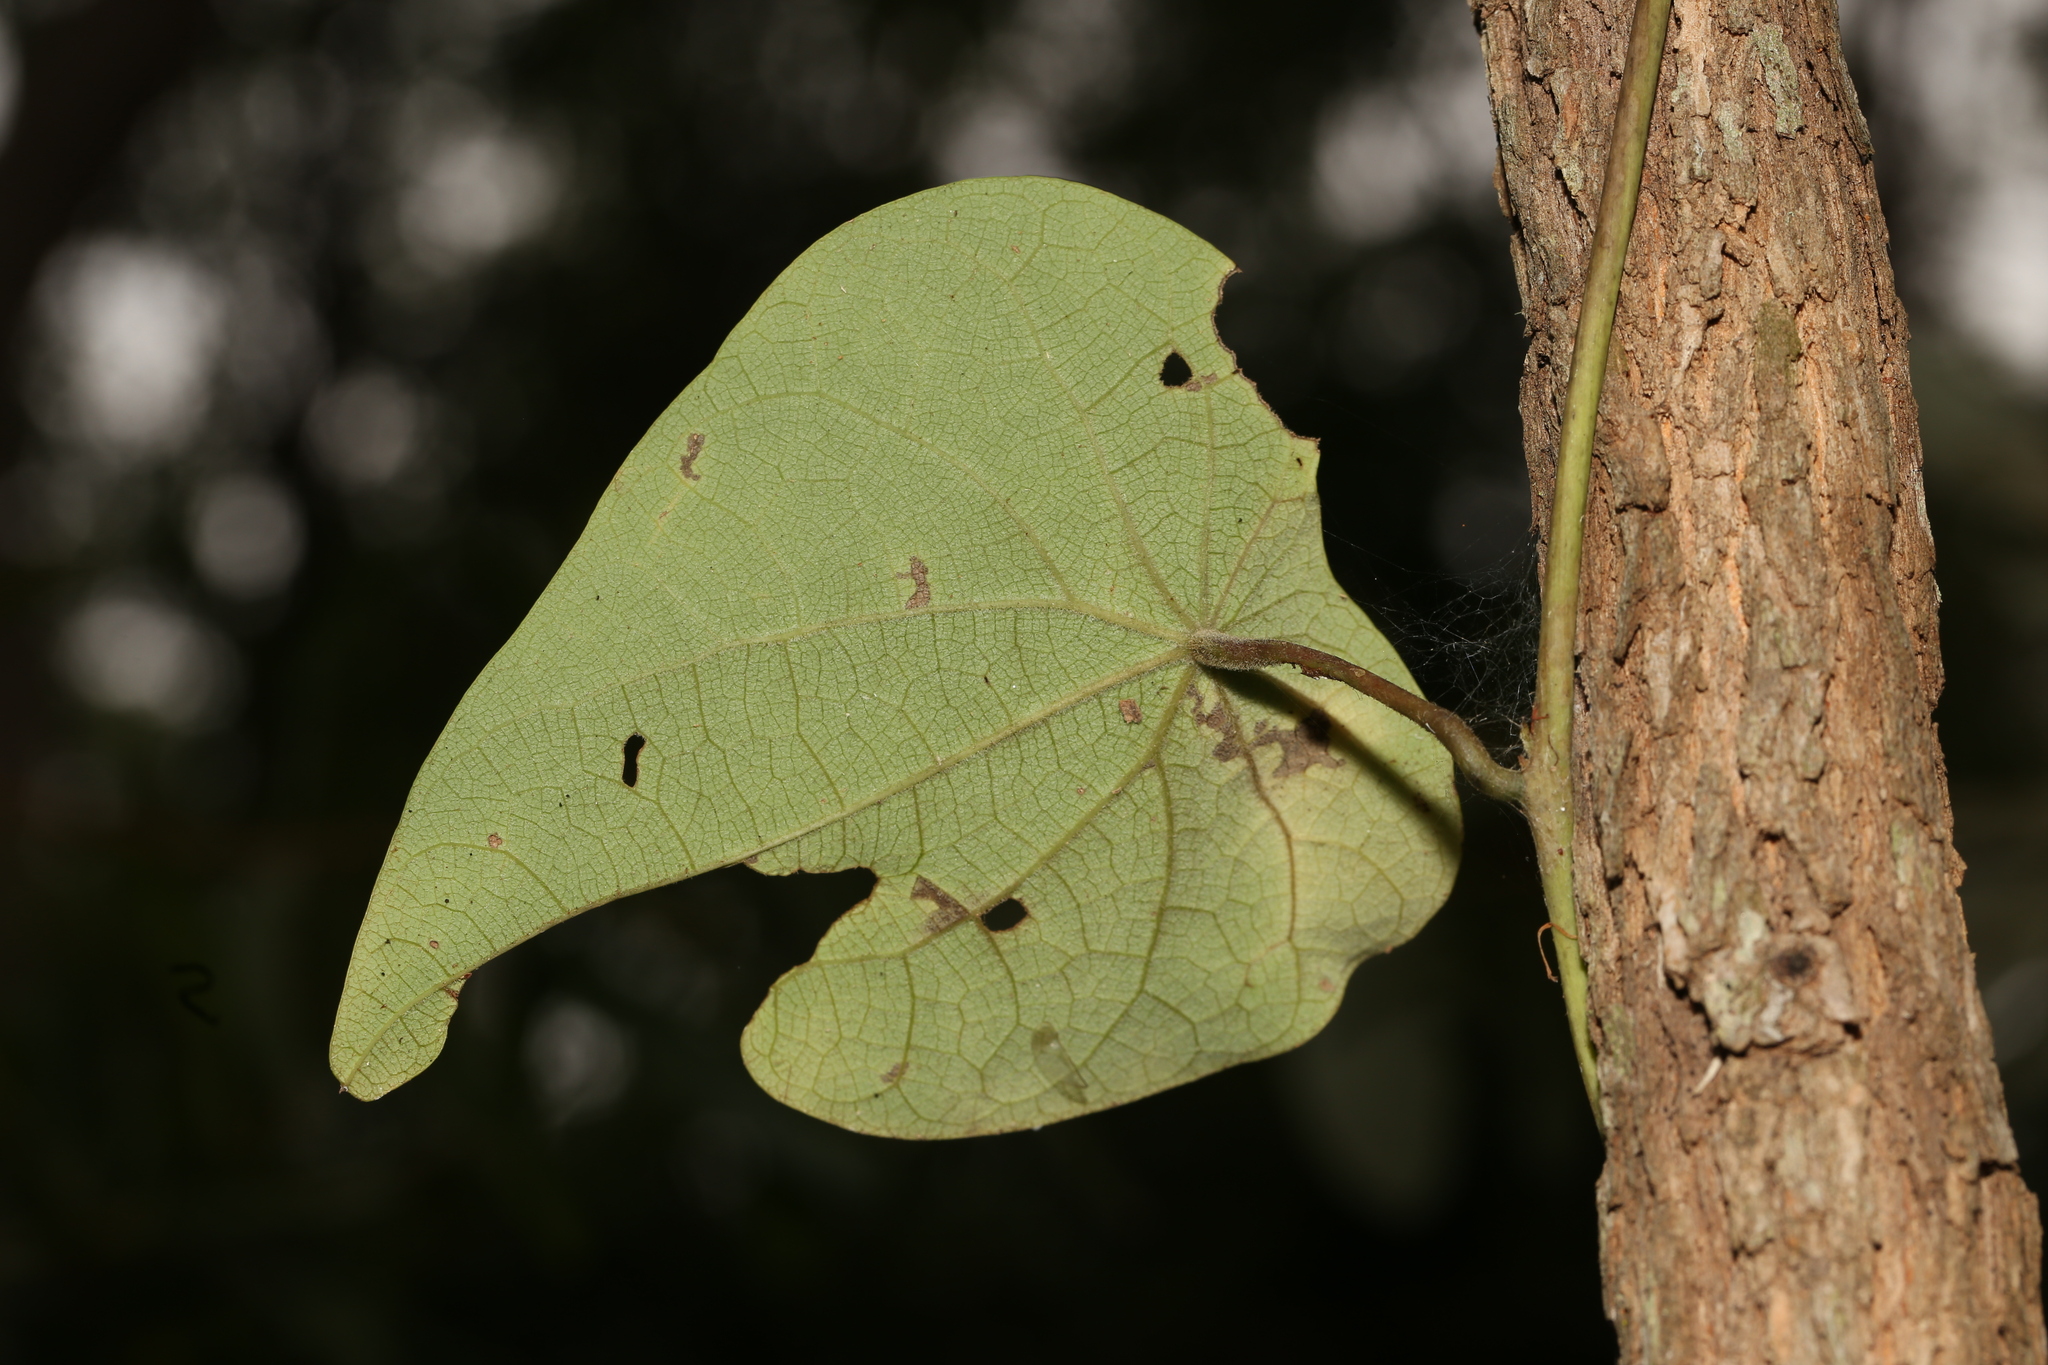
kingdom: Plantae
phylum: Tracheophyta
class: Magnoliopsida
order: Ranunculales
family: Menispermaceae
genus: Stephania
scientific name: Stephania japonica
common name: Snake vine
